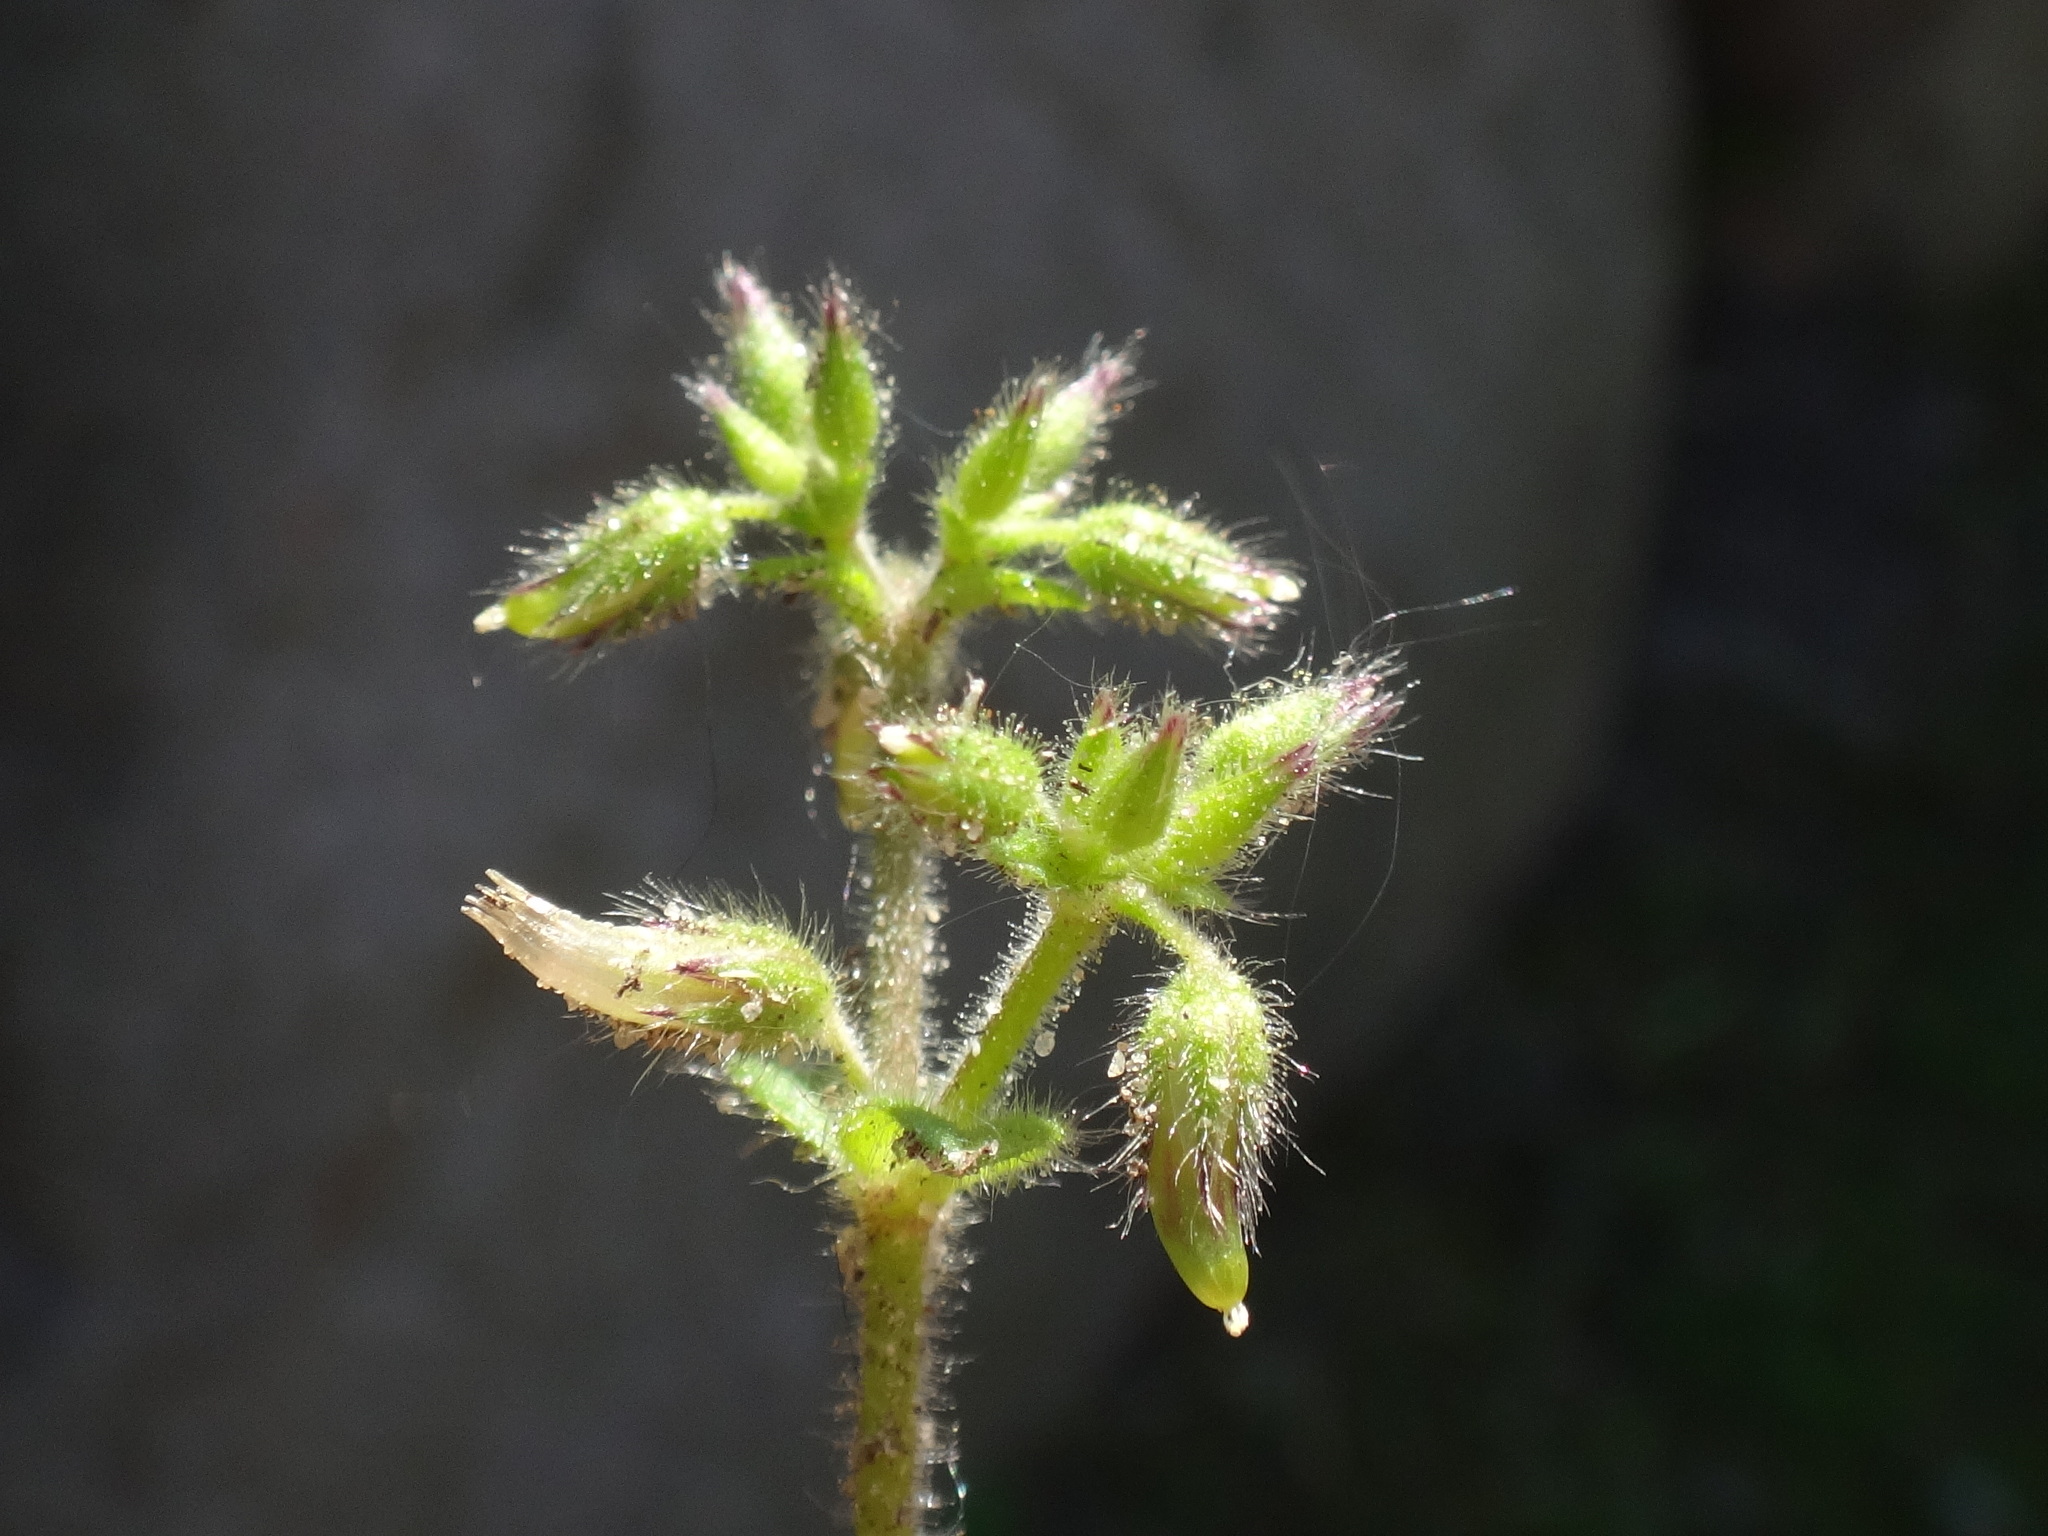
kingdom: Plantae
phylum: Tracheophyta
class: Magnoliopsida
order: Caryophyllales
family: Caryophyllaceae
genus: Cerastium
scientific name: Cerastium glomeratum
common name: Sticky chickweed
